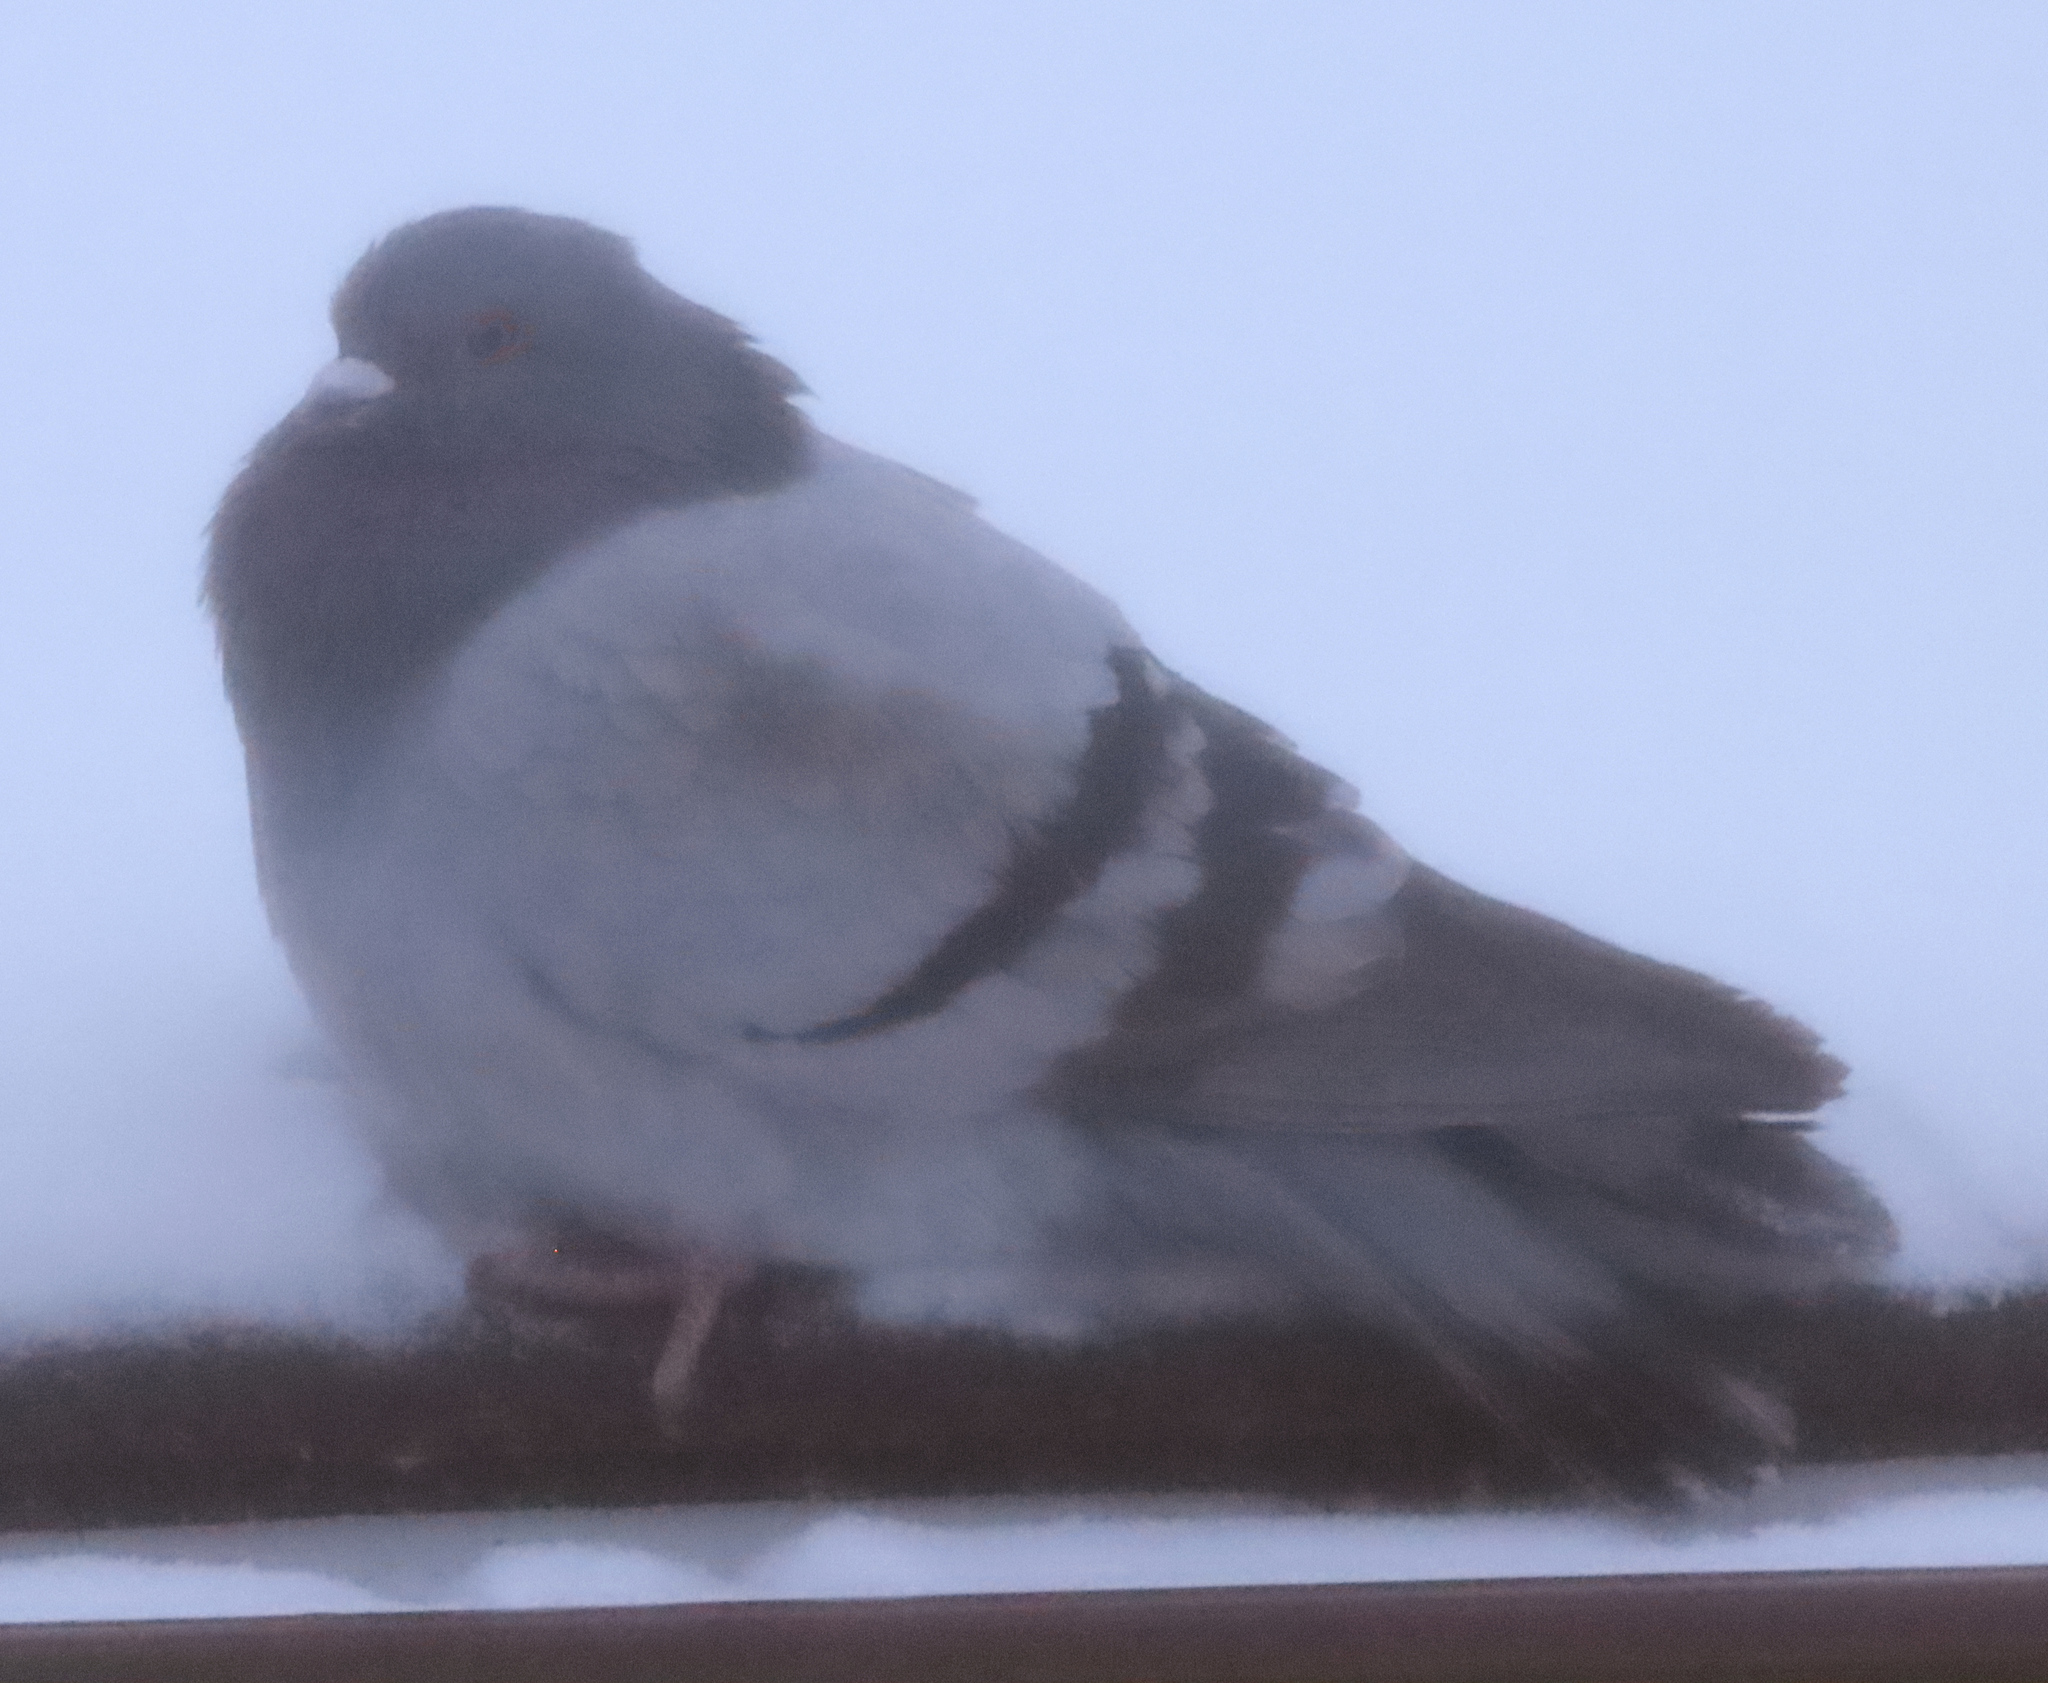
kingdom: Animalia
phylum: Chordata
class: Aves
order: Columbiformes
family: Columbidae
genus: Columba
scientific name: Columba livia
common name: Rock pigeon
